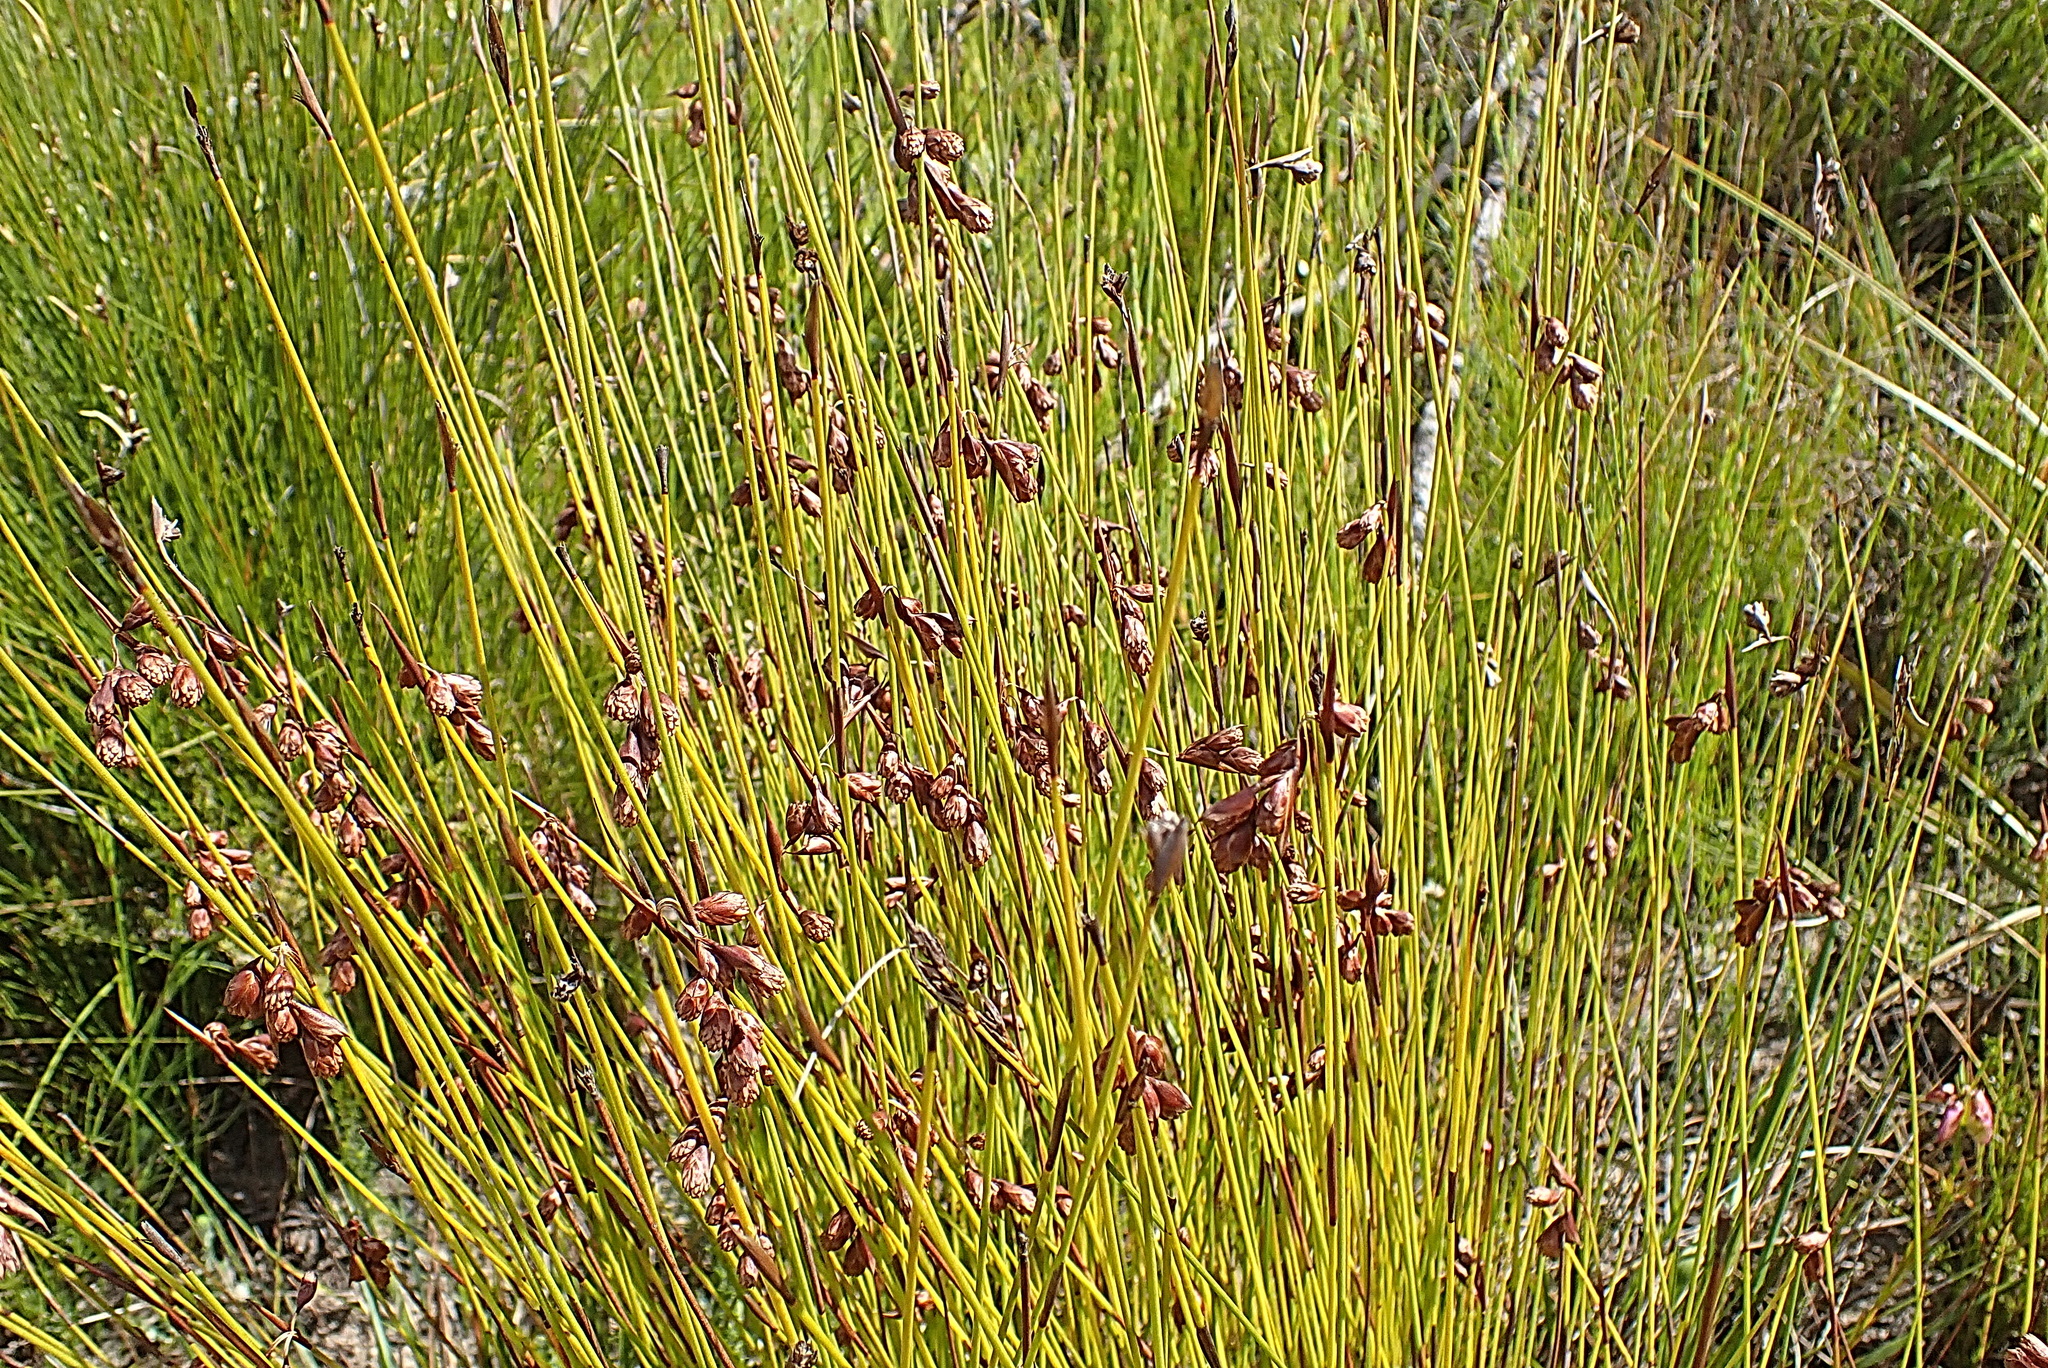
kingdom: Plantae
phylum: Tracheophyta
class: Liliopsida
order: Poales
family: Restionaceae
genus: Staberoha
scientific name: Staberoha cernua
